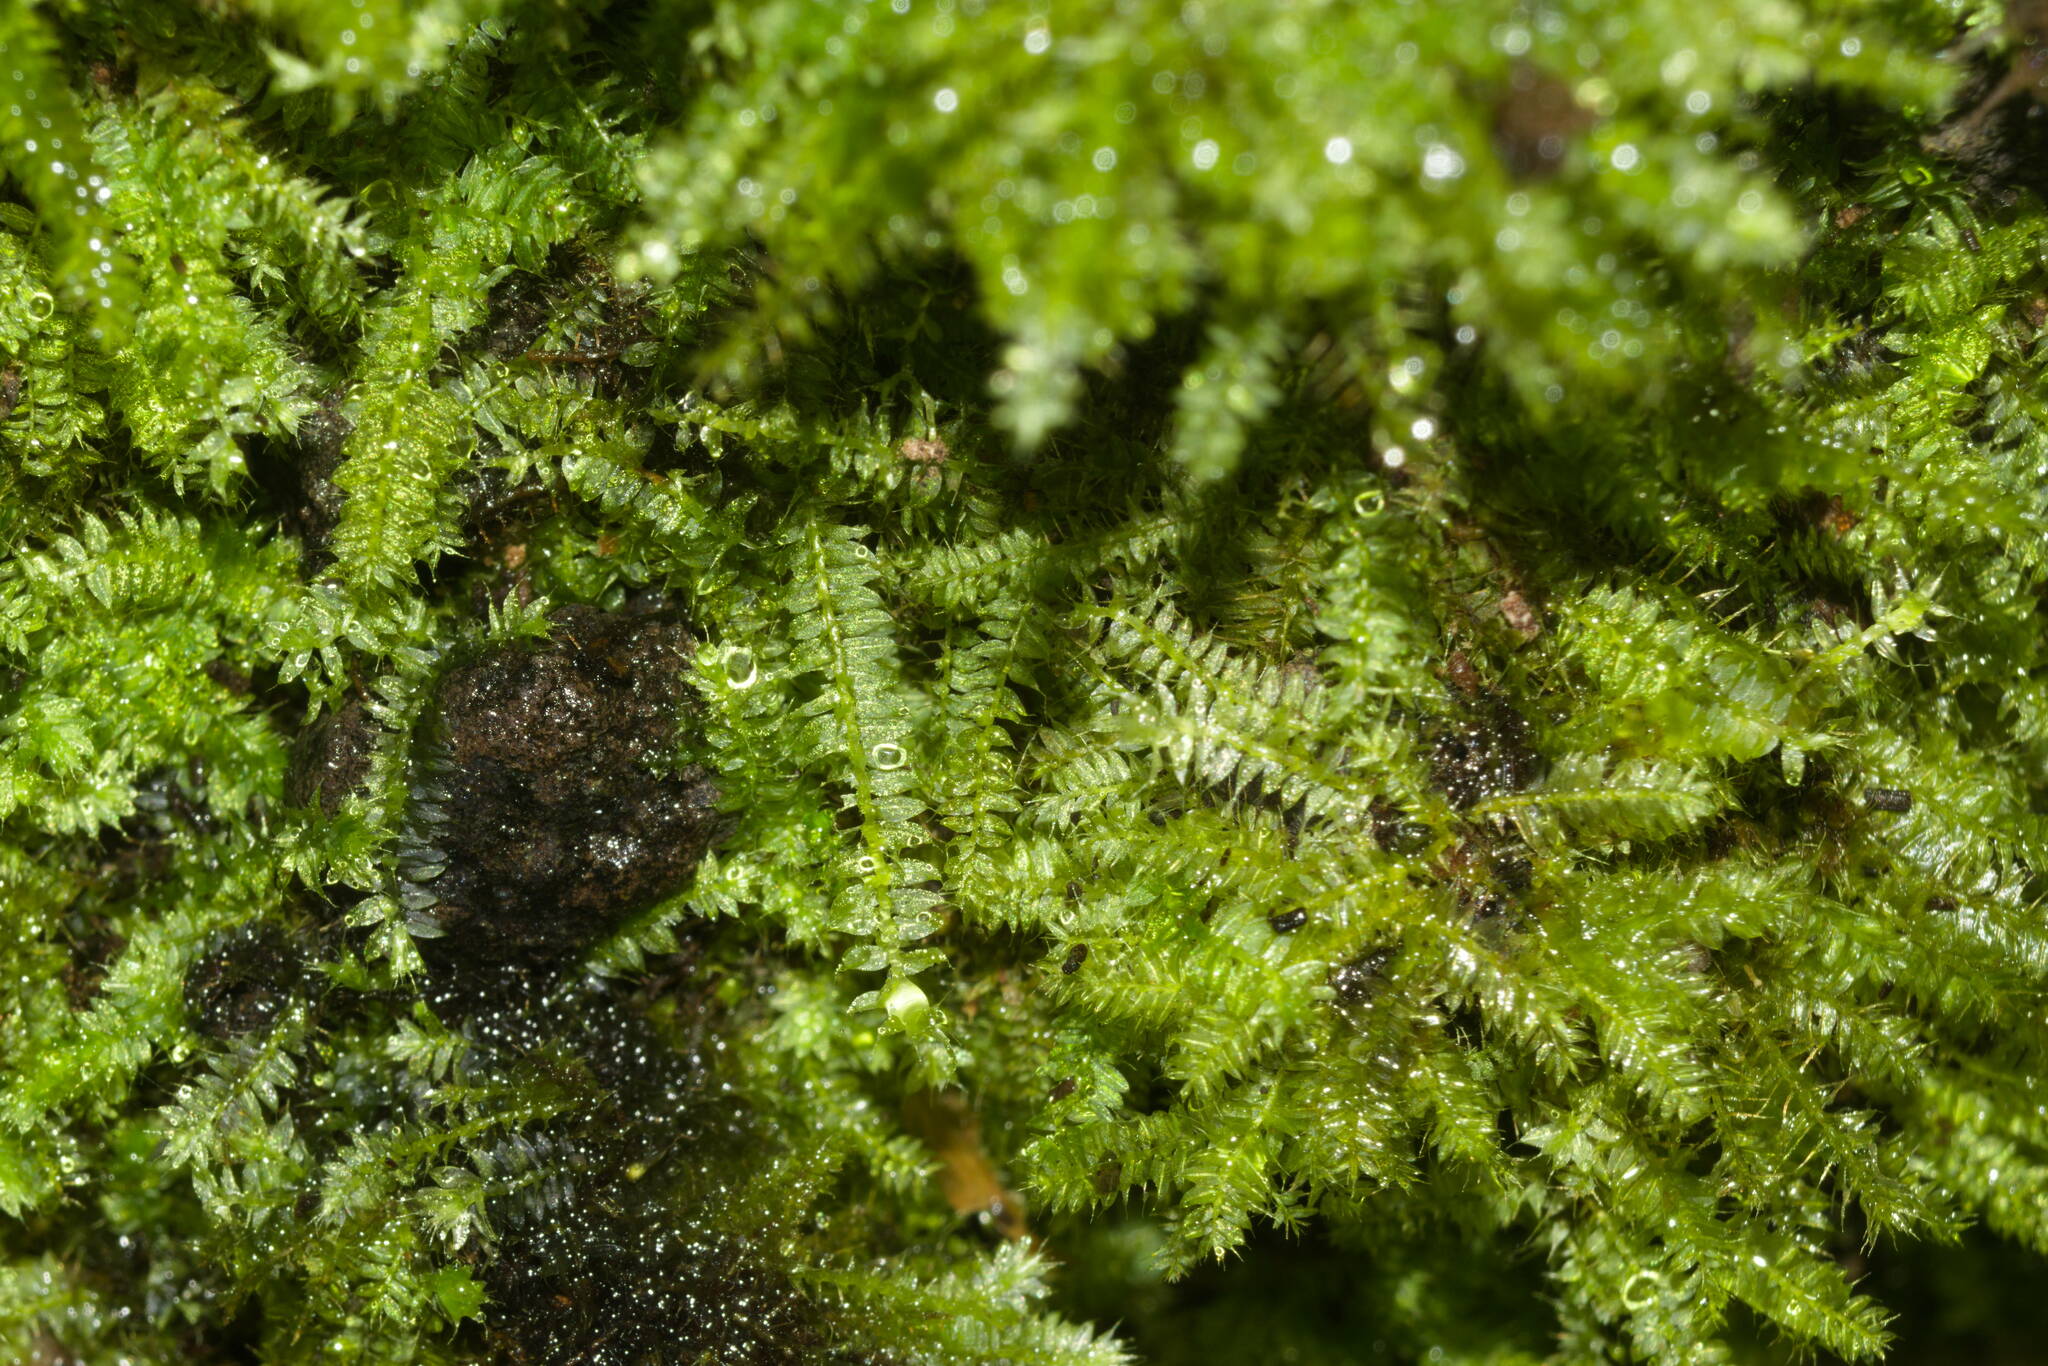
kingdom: Plantae
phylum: Bryophyta
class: Bryopsida
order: Hypnodendrales
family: Racopilaceae
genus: Racopilum
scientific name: Racopilum cuspidigerum
